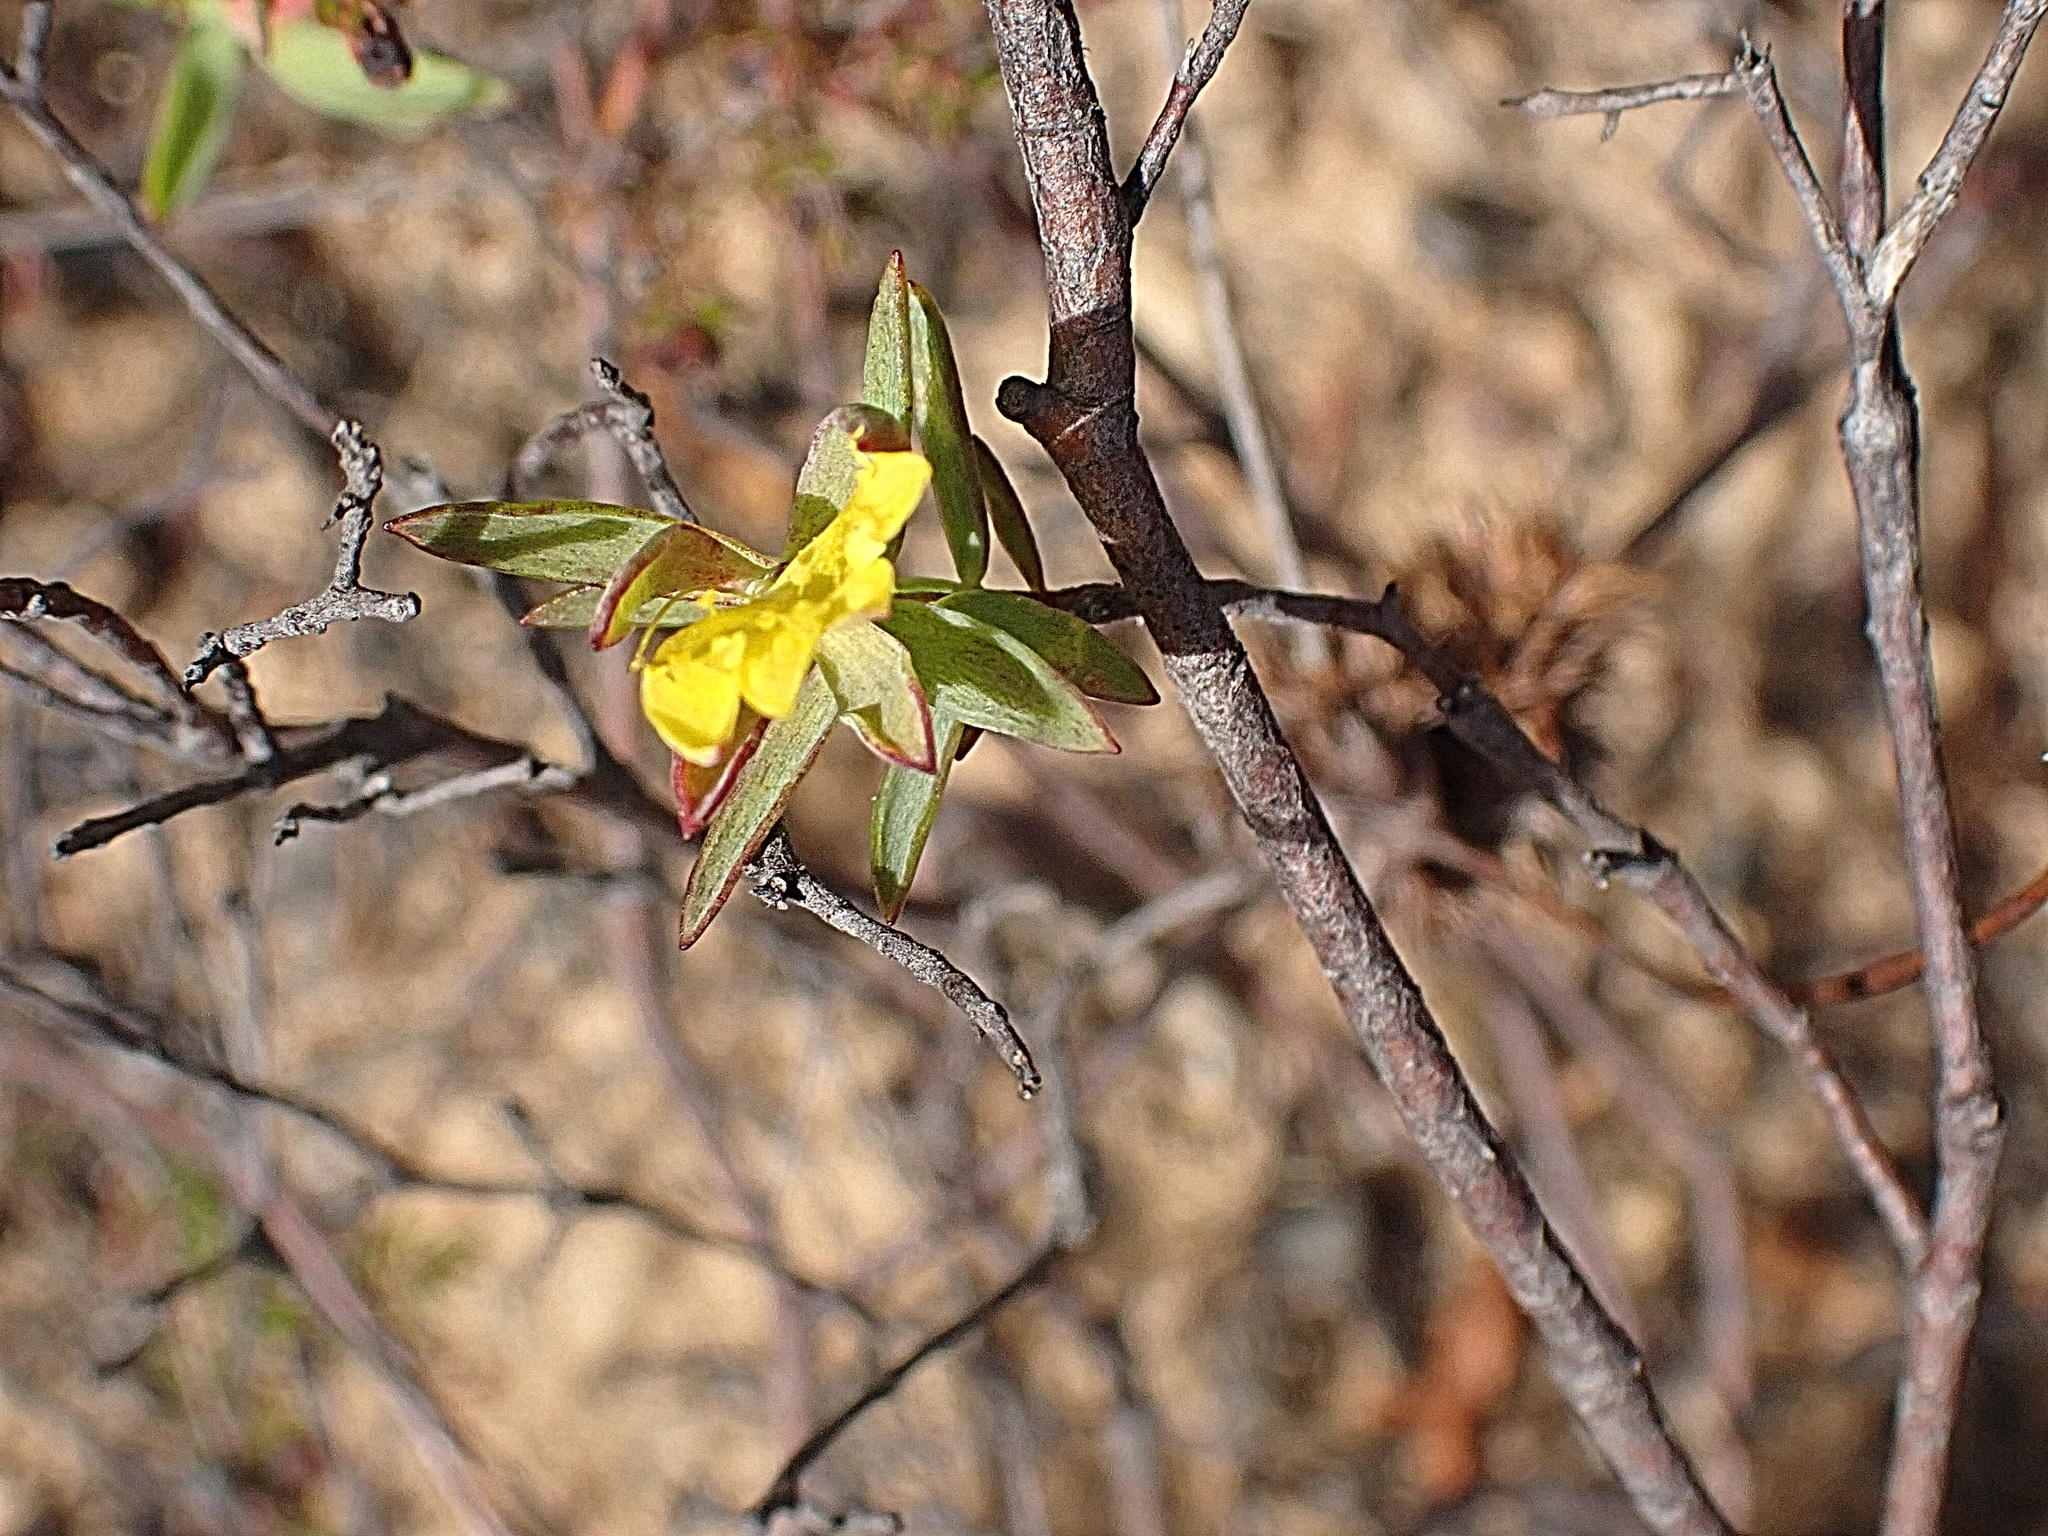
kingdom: Plantae
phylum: Tracheophyta
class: Magnoliopsida
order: Malvales
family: Thymelaeaceae
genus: Gnidia
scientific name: Gnidia juniperifolia
